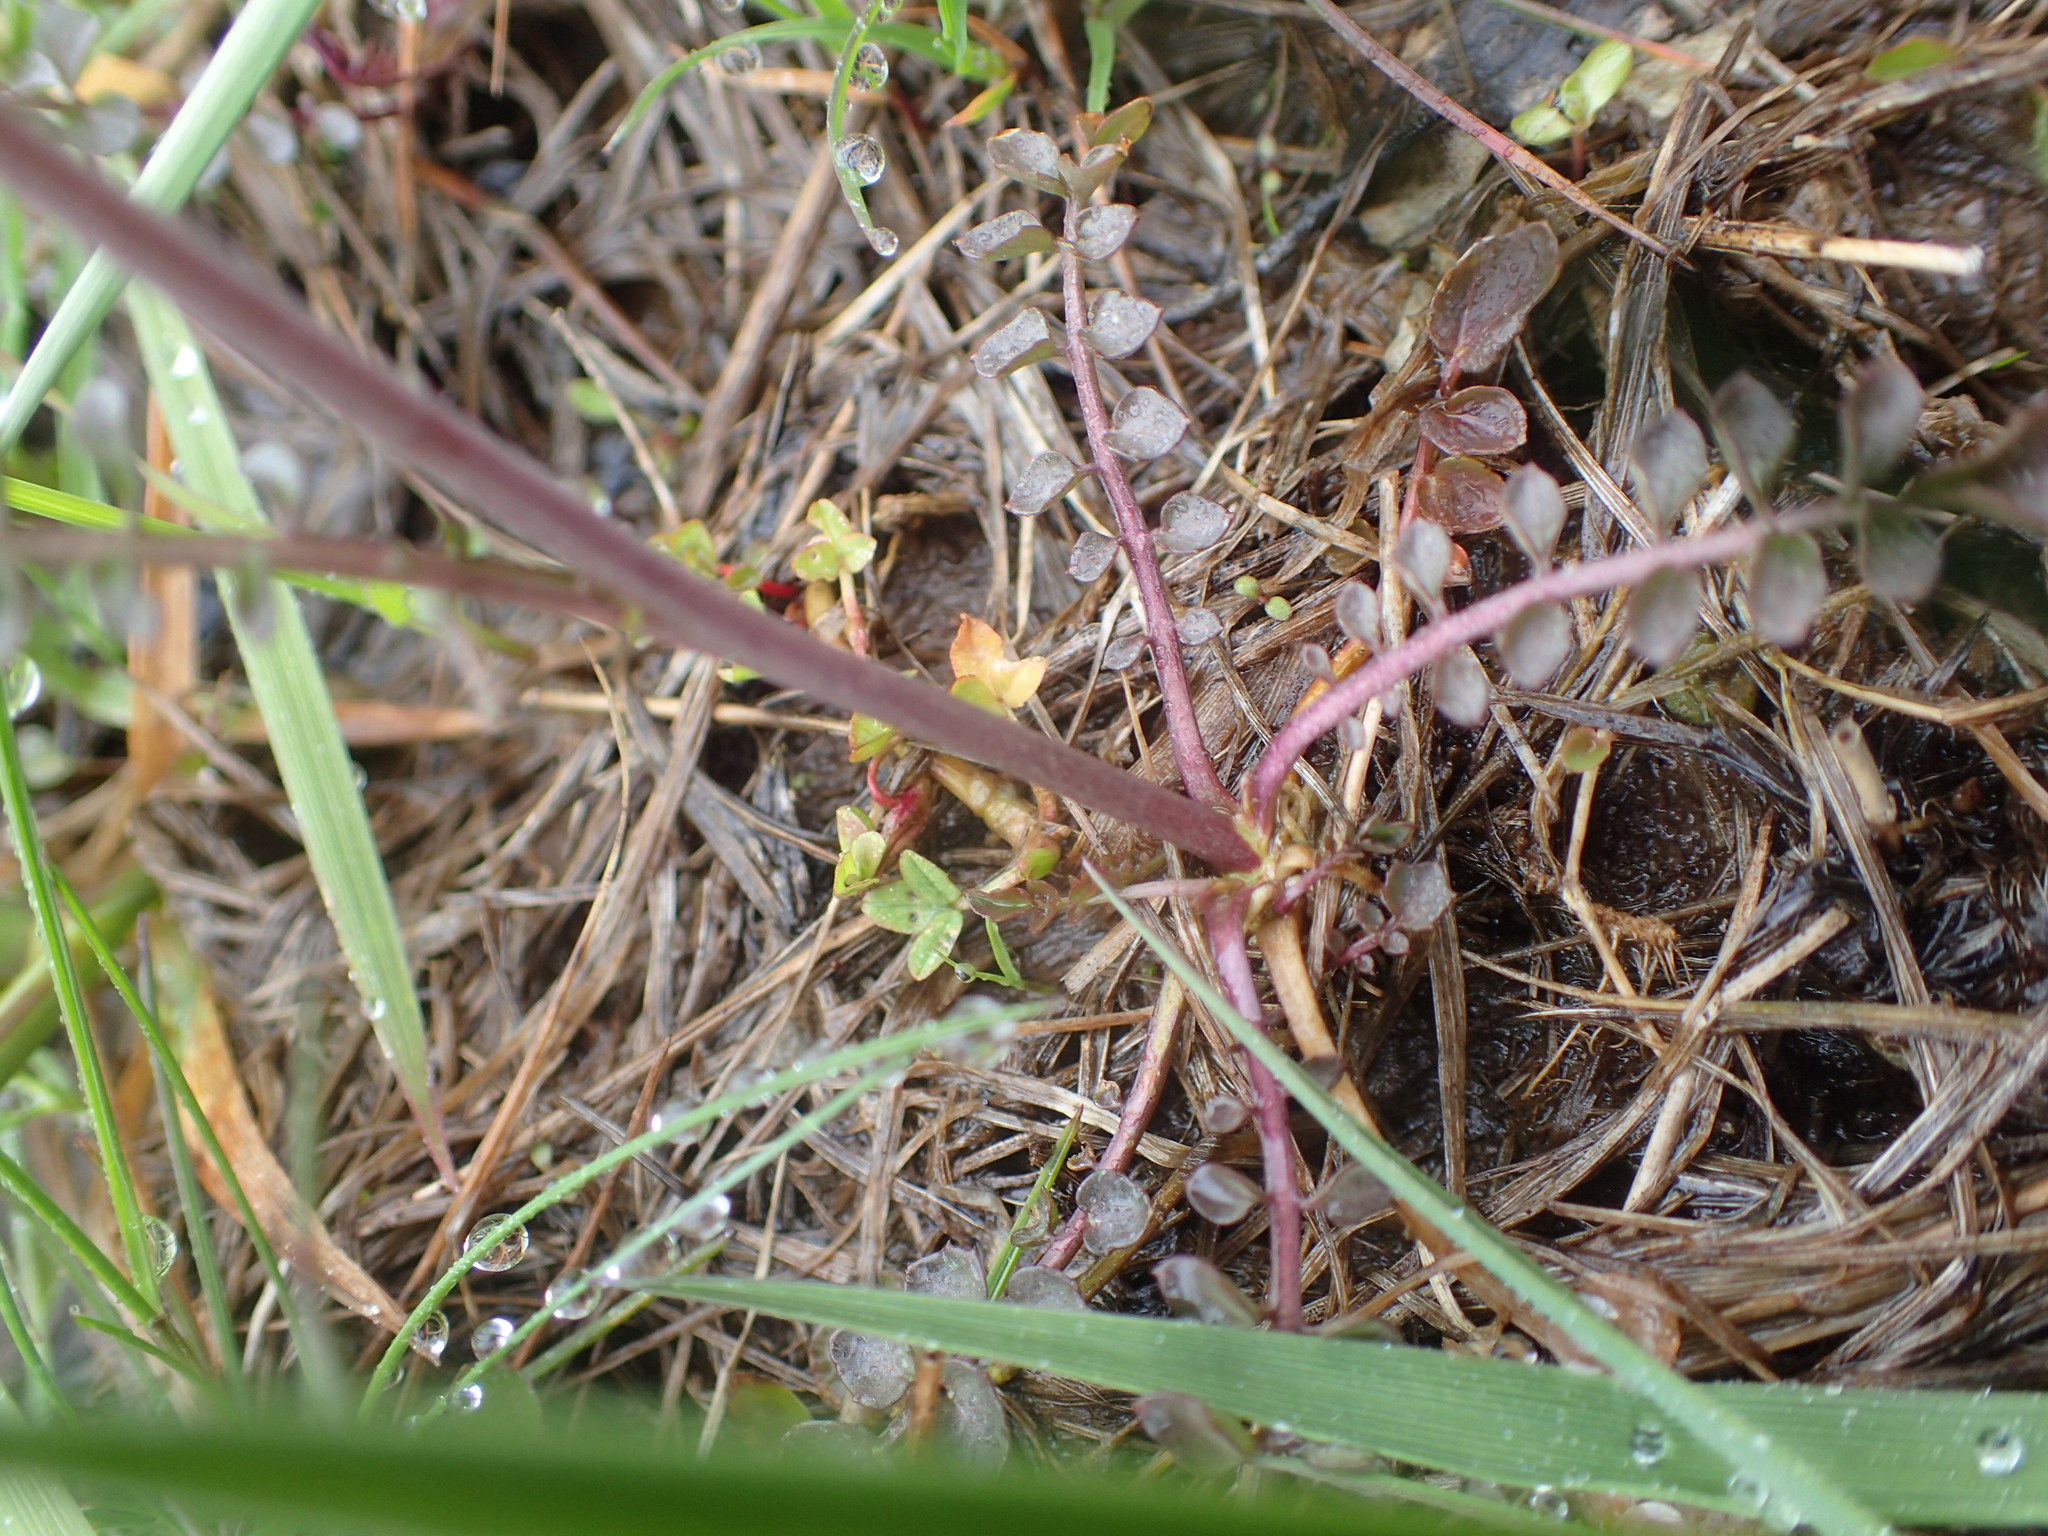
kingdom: Plantae
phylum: Tracheophyta
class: Magnoliopsida
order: Brassicales
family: Brassicaceae
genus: Cardamine
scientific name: Cardamine pratensis
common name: Cuckoo flower
